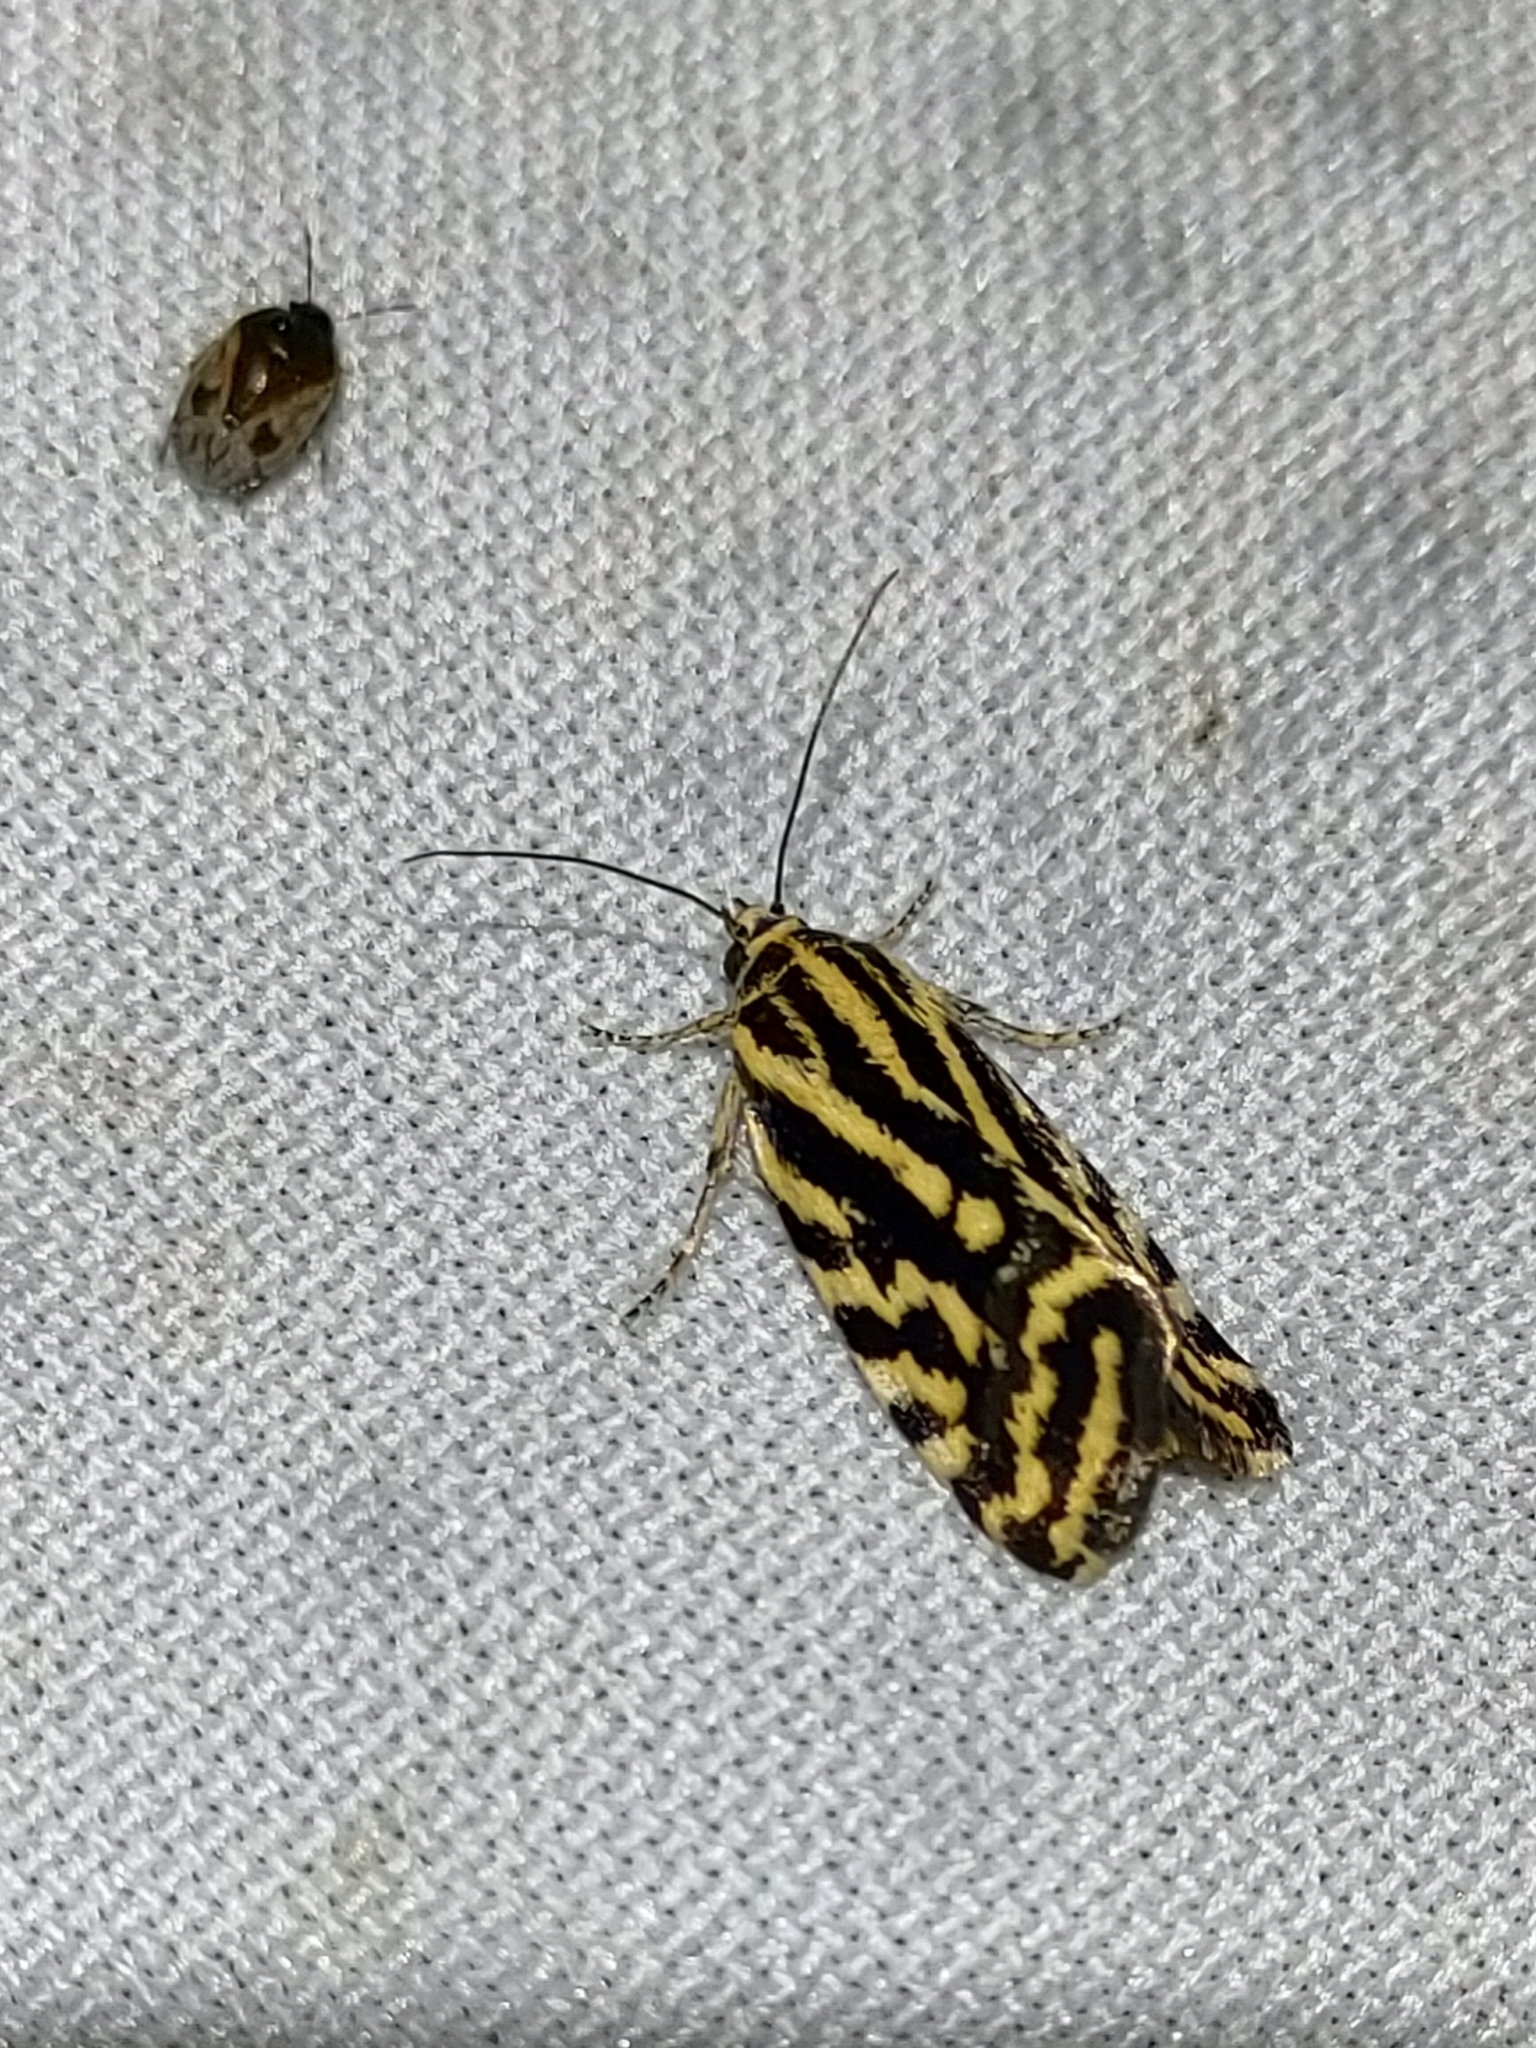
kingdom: Animalia
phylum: Arthropoda
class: Insecta
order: Lepidoptera
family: Noctuidae
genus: Acontia
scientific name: Acontia trabealis
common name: Spotted sulphur
